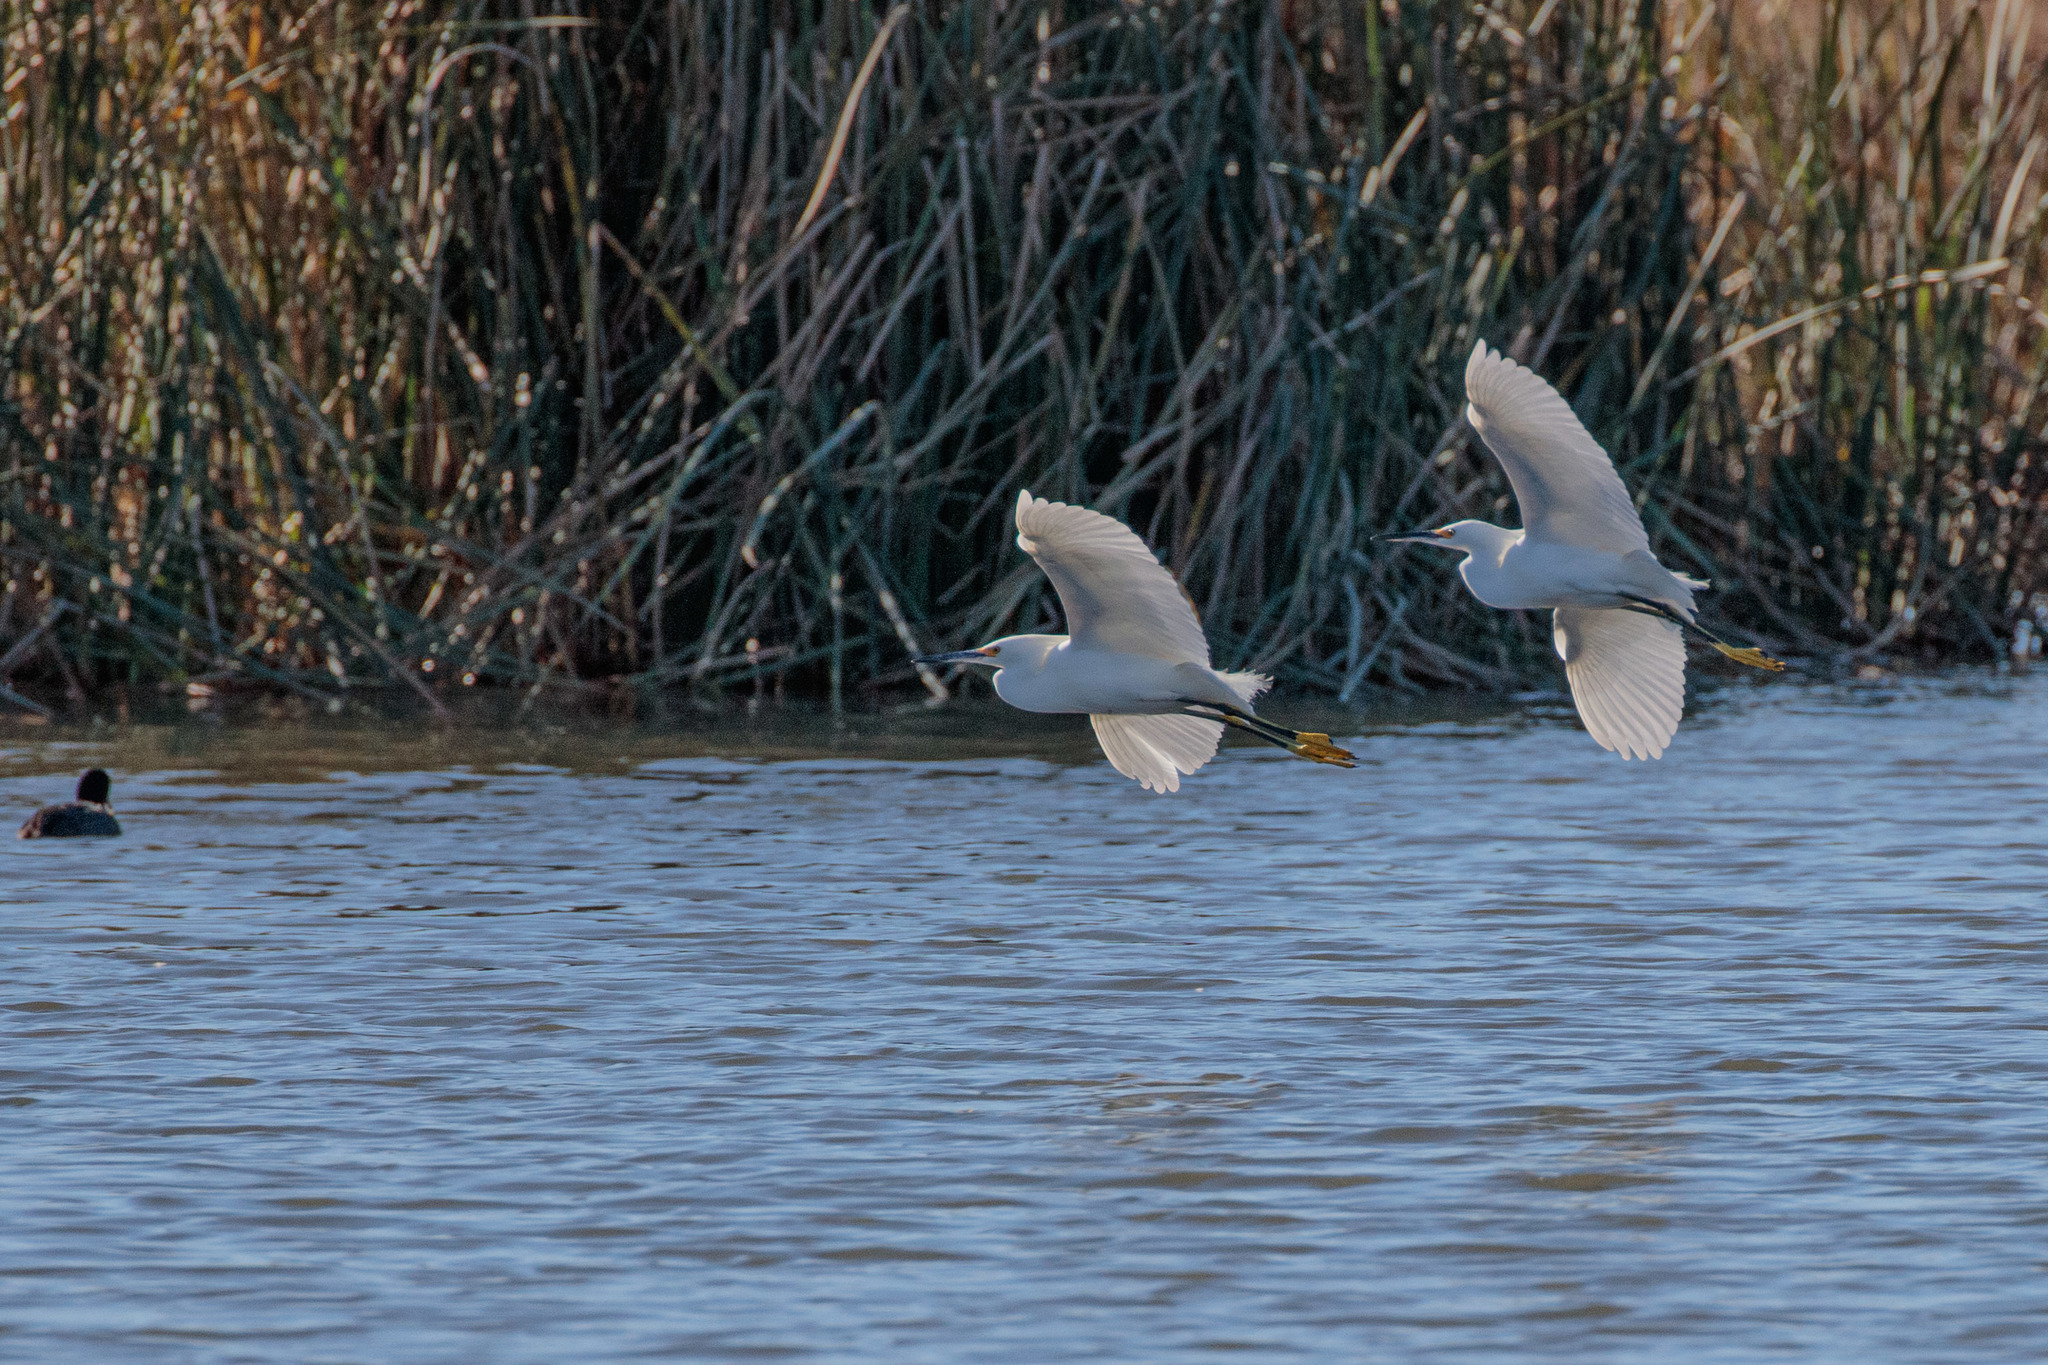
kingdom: Animalia
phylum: Chordata
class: Aves
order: Pelecaniformes
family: Ardeidae
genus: Egretta
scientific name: Egretta thula
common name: Snowy egret
